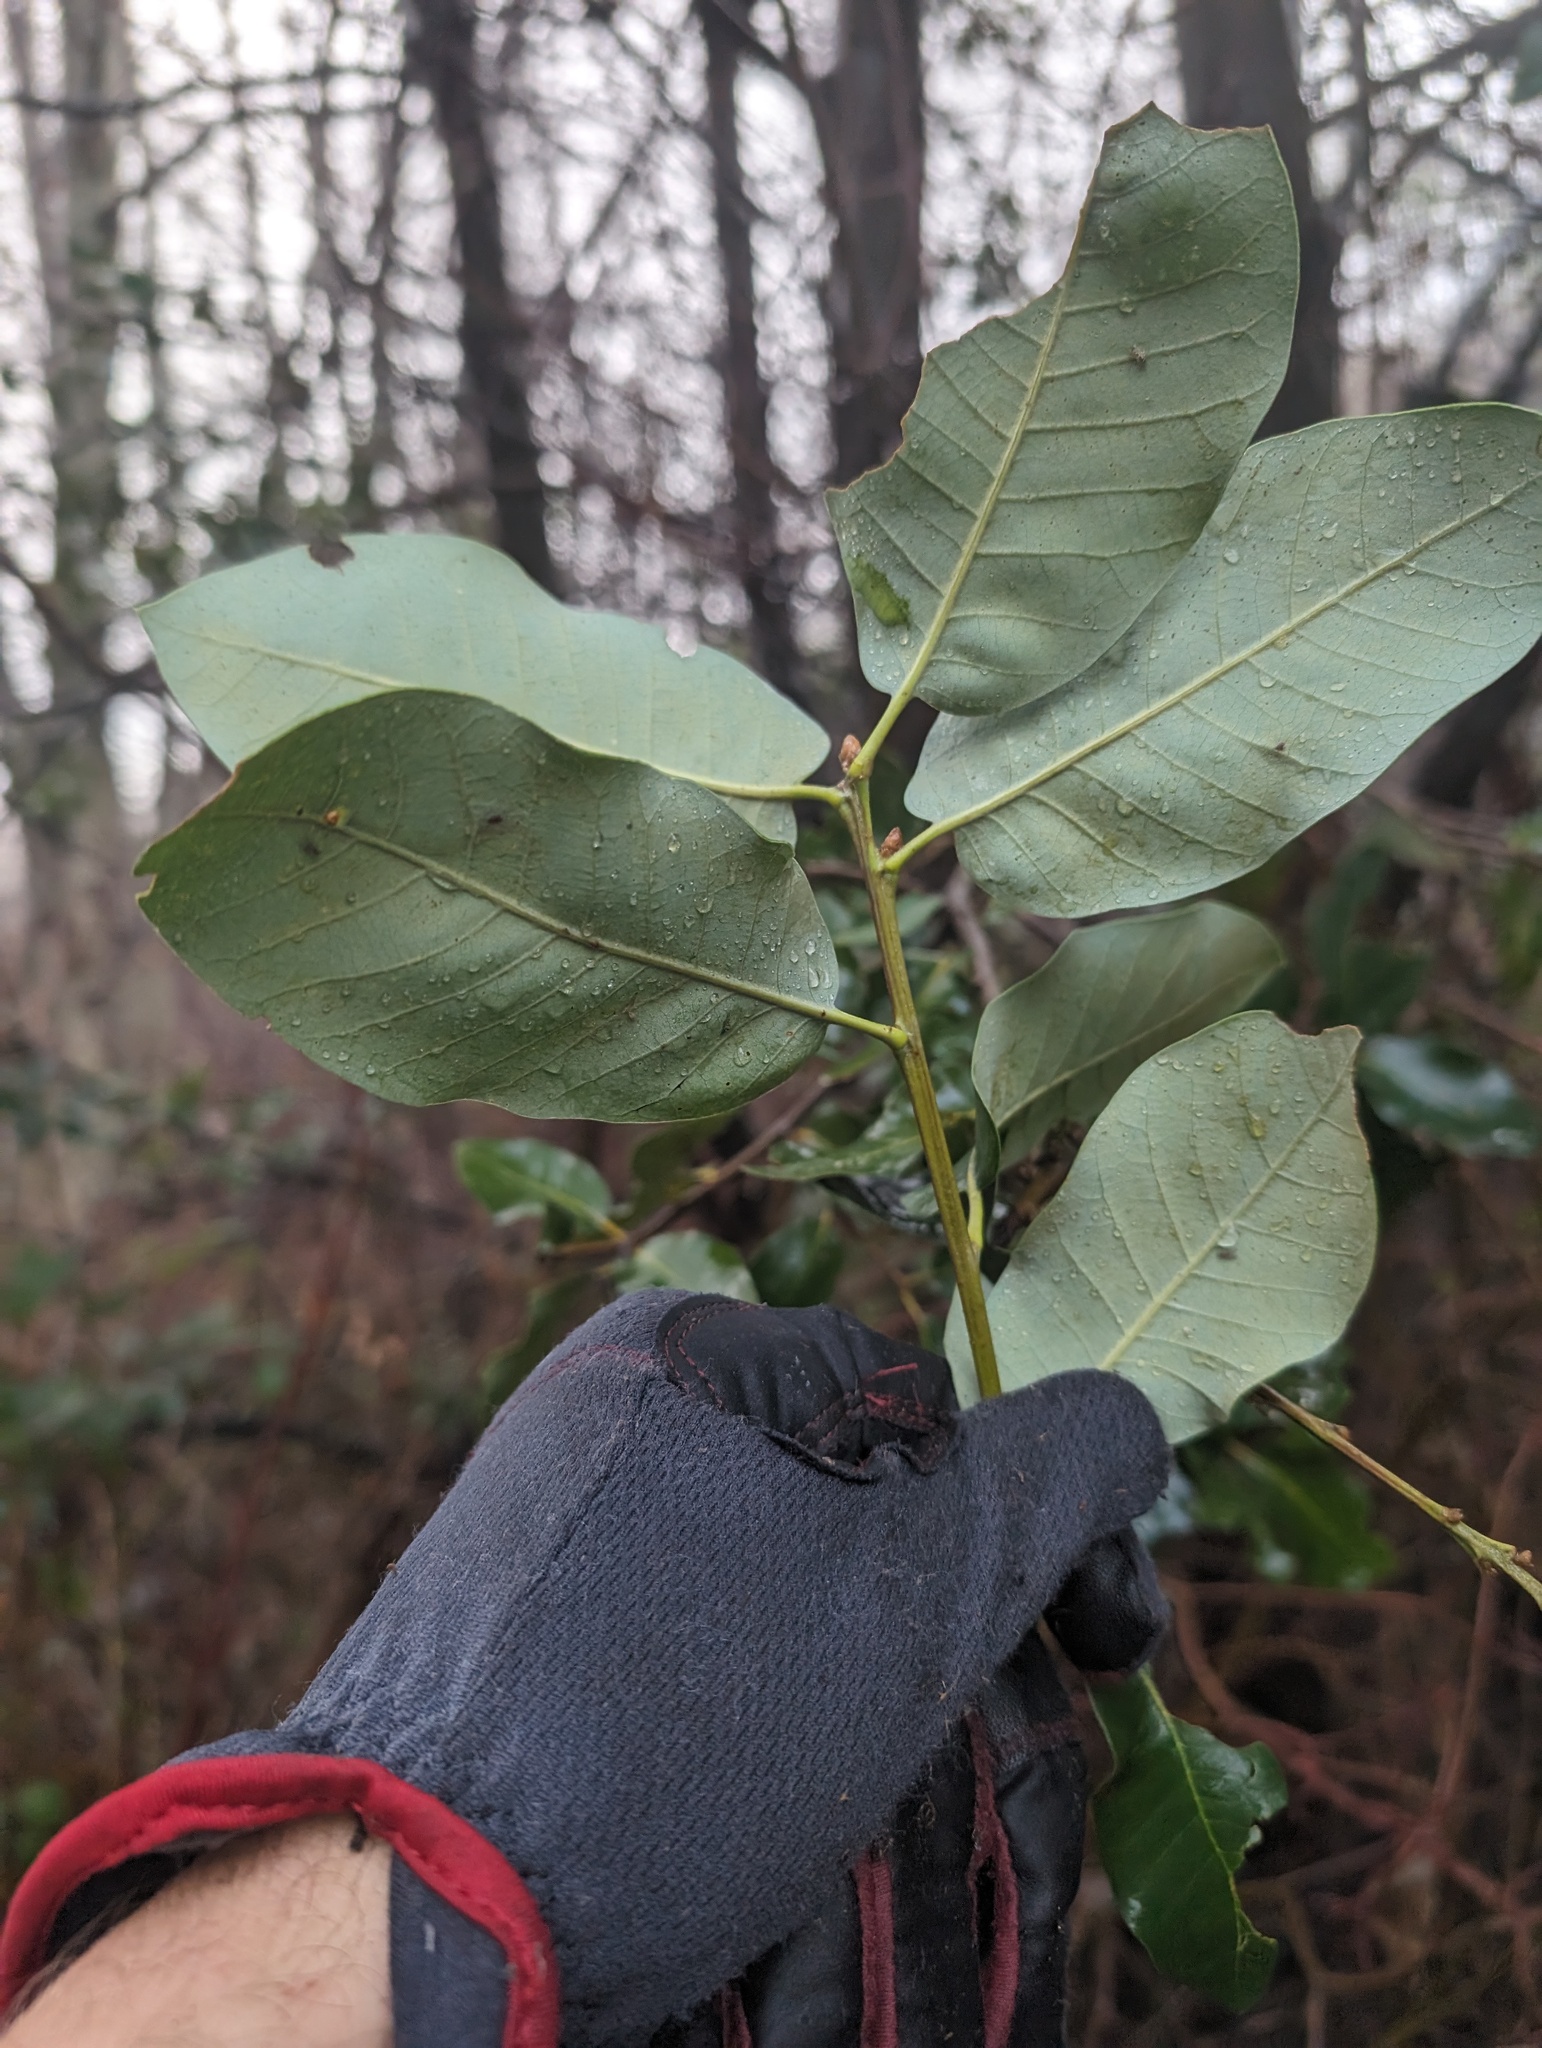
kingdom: Plantae
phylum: Tracheophyta
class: Magnoliopsida
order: Fagales
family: Fagaceae
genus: Quercus
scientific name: Quercus chrysolepis
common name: Canyon live oak
